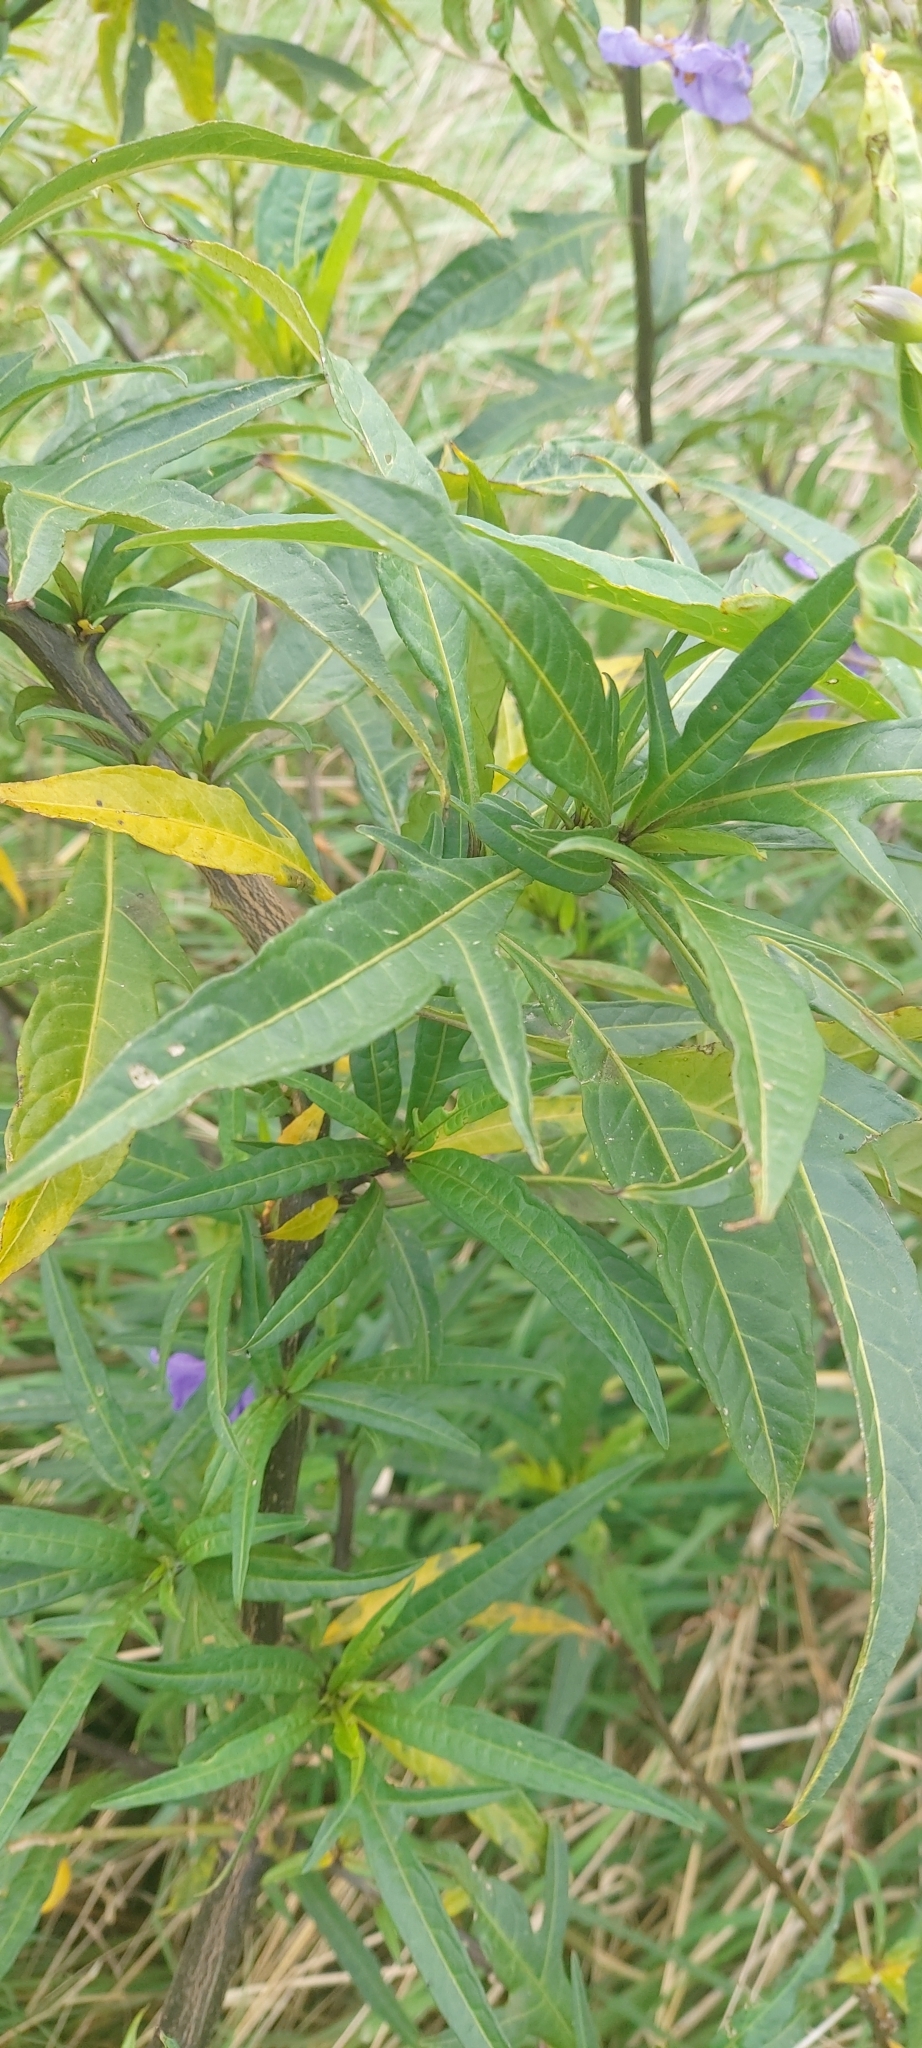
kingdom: Plantae
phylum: Tracheophyta
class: Magnoliopsida
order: Solanales
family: Solanaceae
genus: Solanum
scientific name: Solanum laciniatum
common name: Kangaroo-apple
